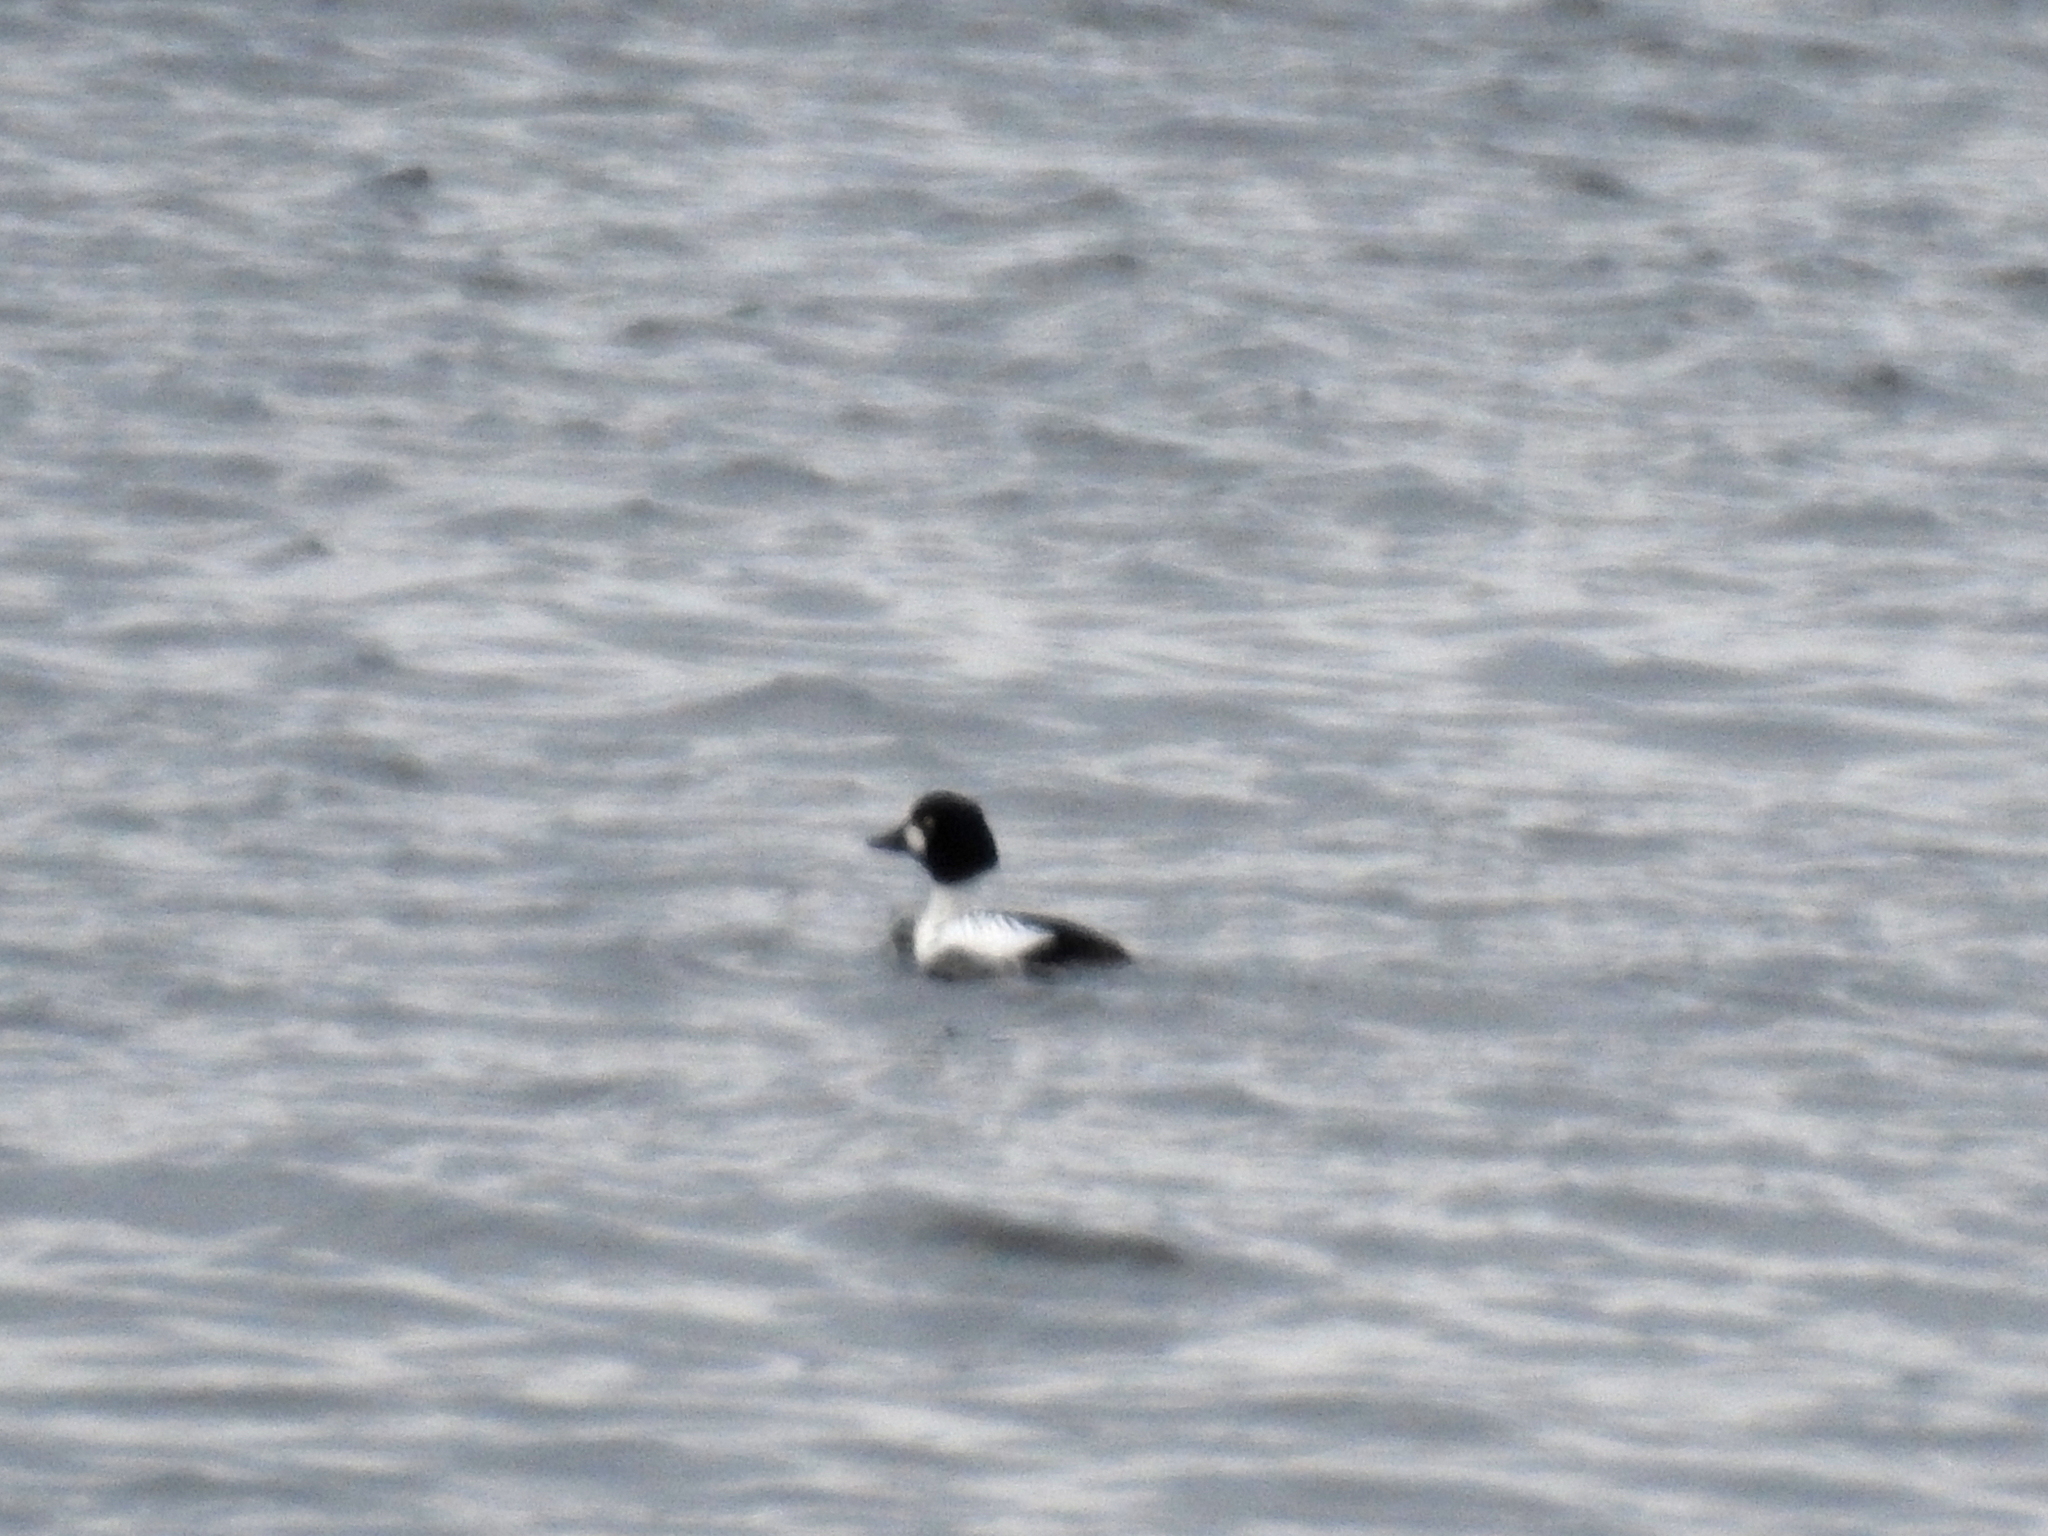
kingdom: Animalia
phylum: Chordata
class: Aves
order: Anseriformes
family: Anatidae
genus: Bucephala
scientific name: Bucephala clangula
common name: Common goldeneye
